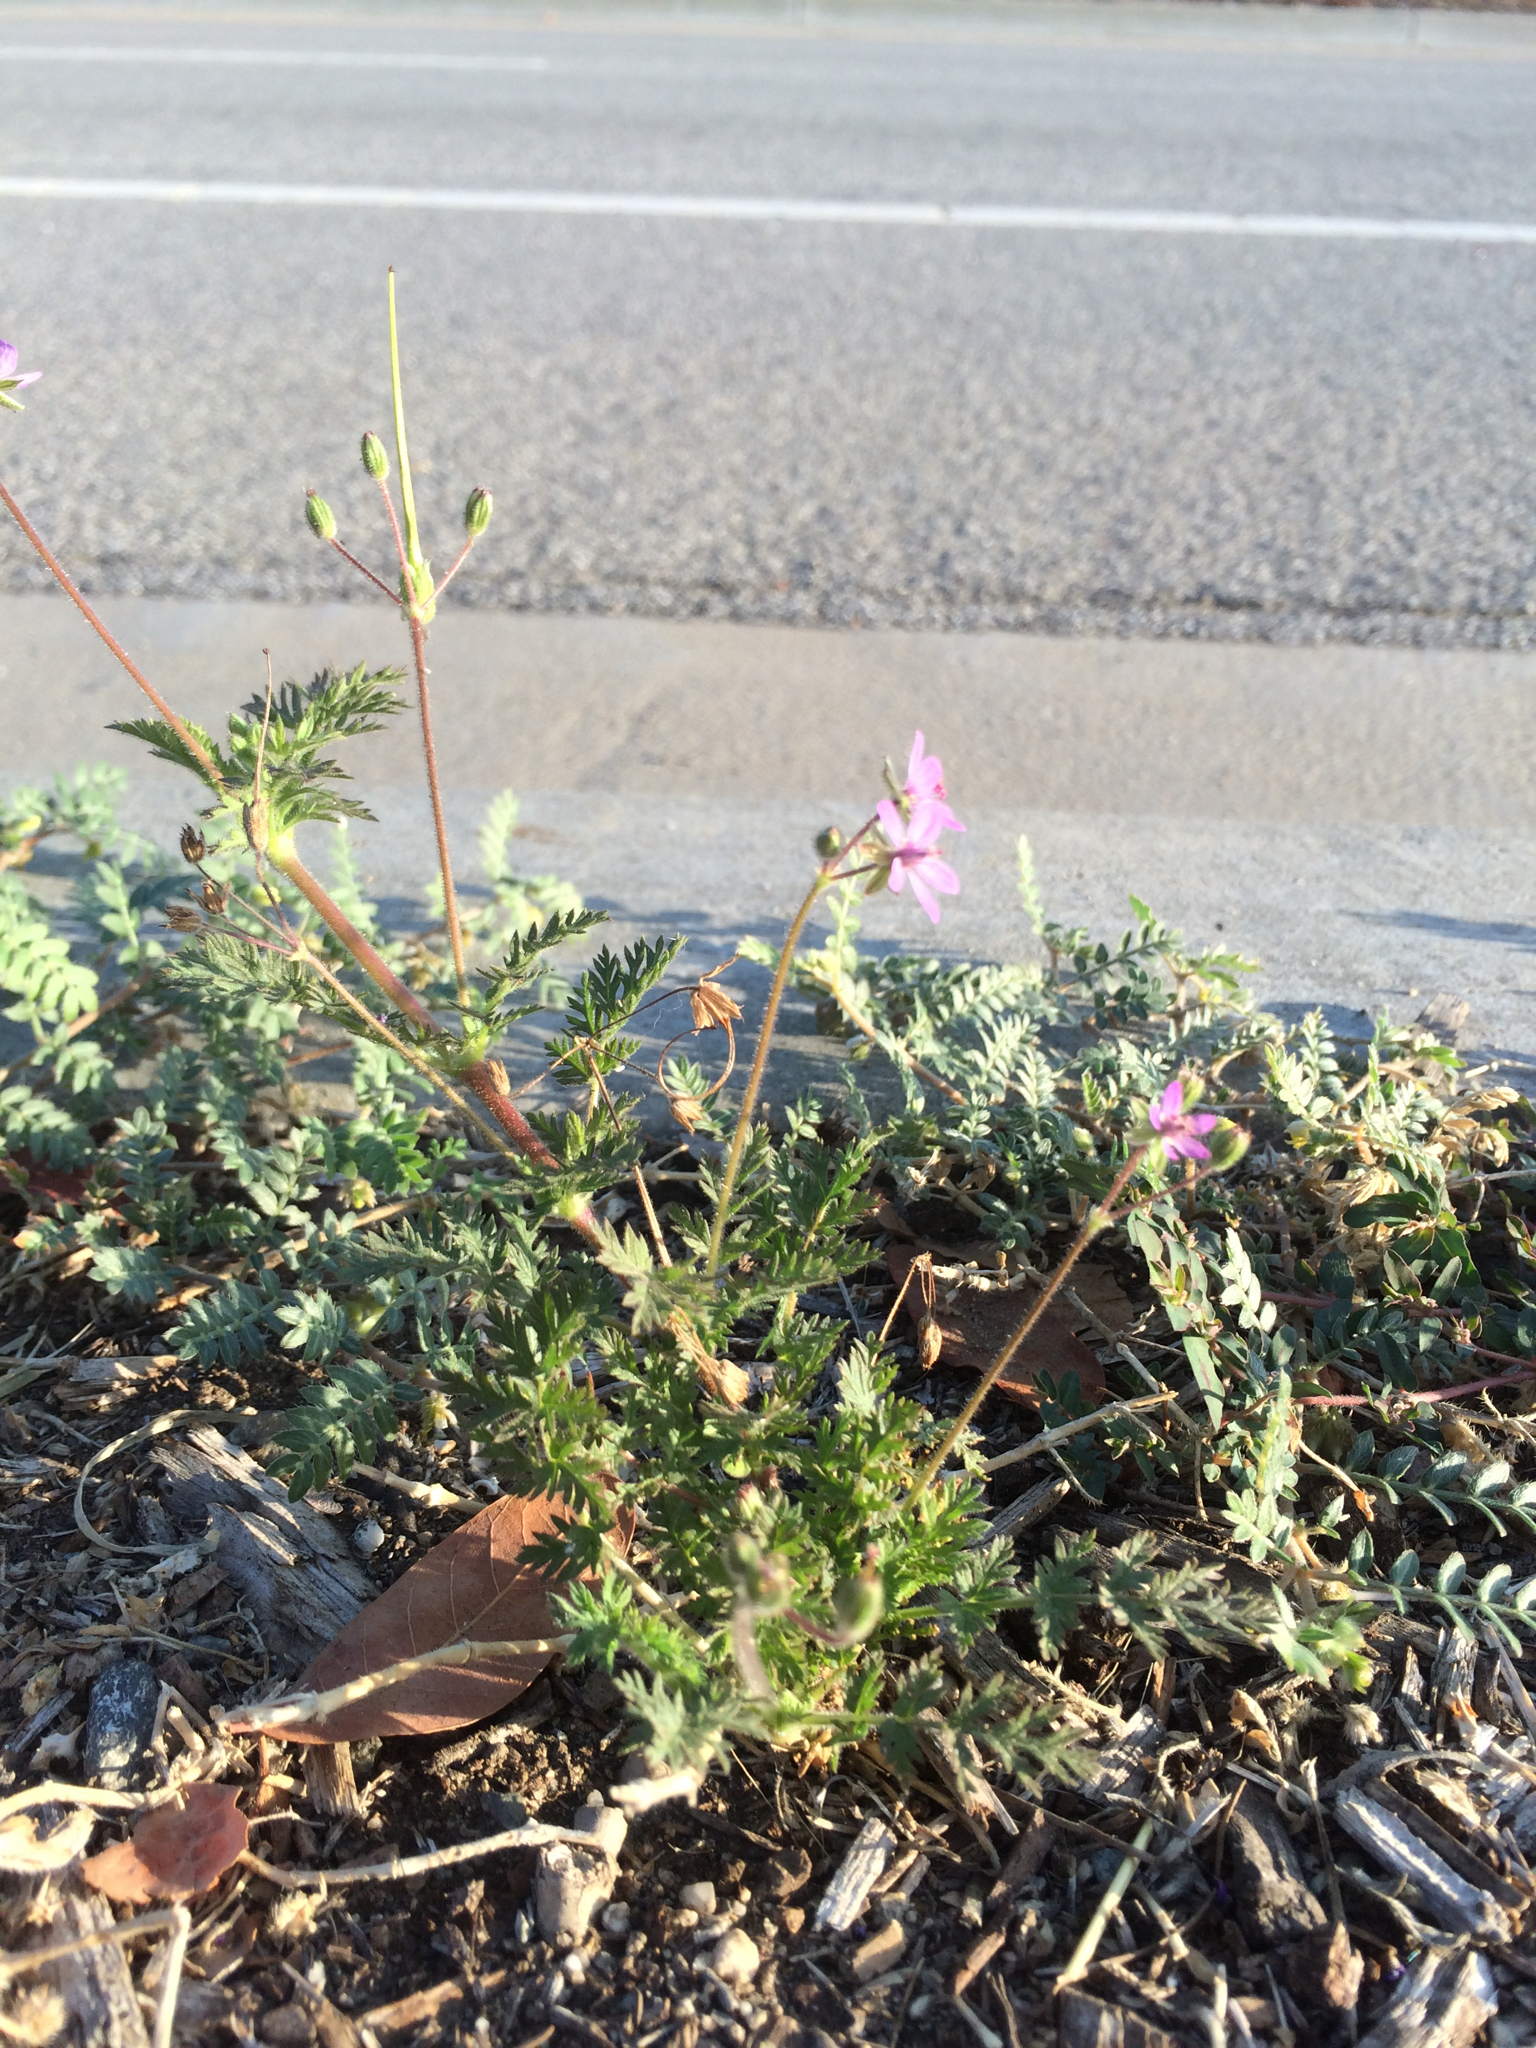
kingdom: Plantae
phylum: Tracheophyta
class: Magnoliopsida
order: Geraniales
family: Geraniaceae
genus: Erodium
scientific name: Erodium cicutarium
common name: Common stork's-bill
